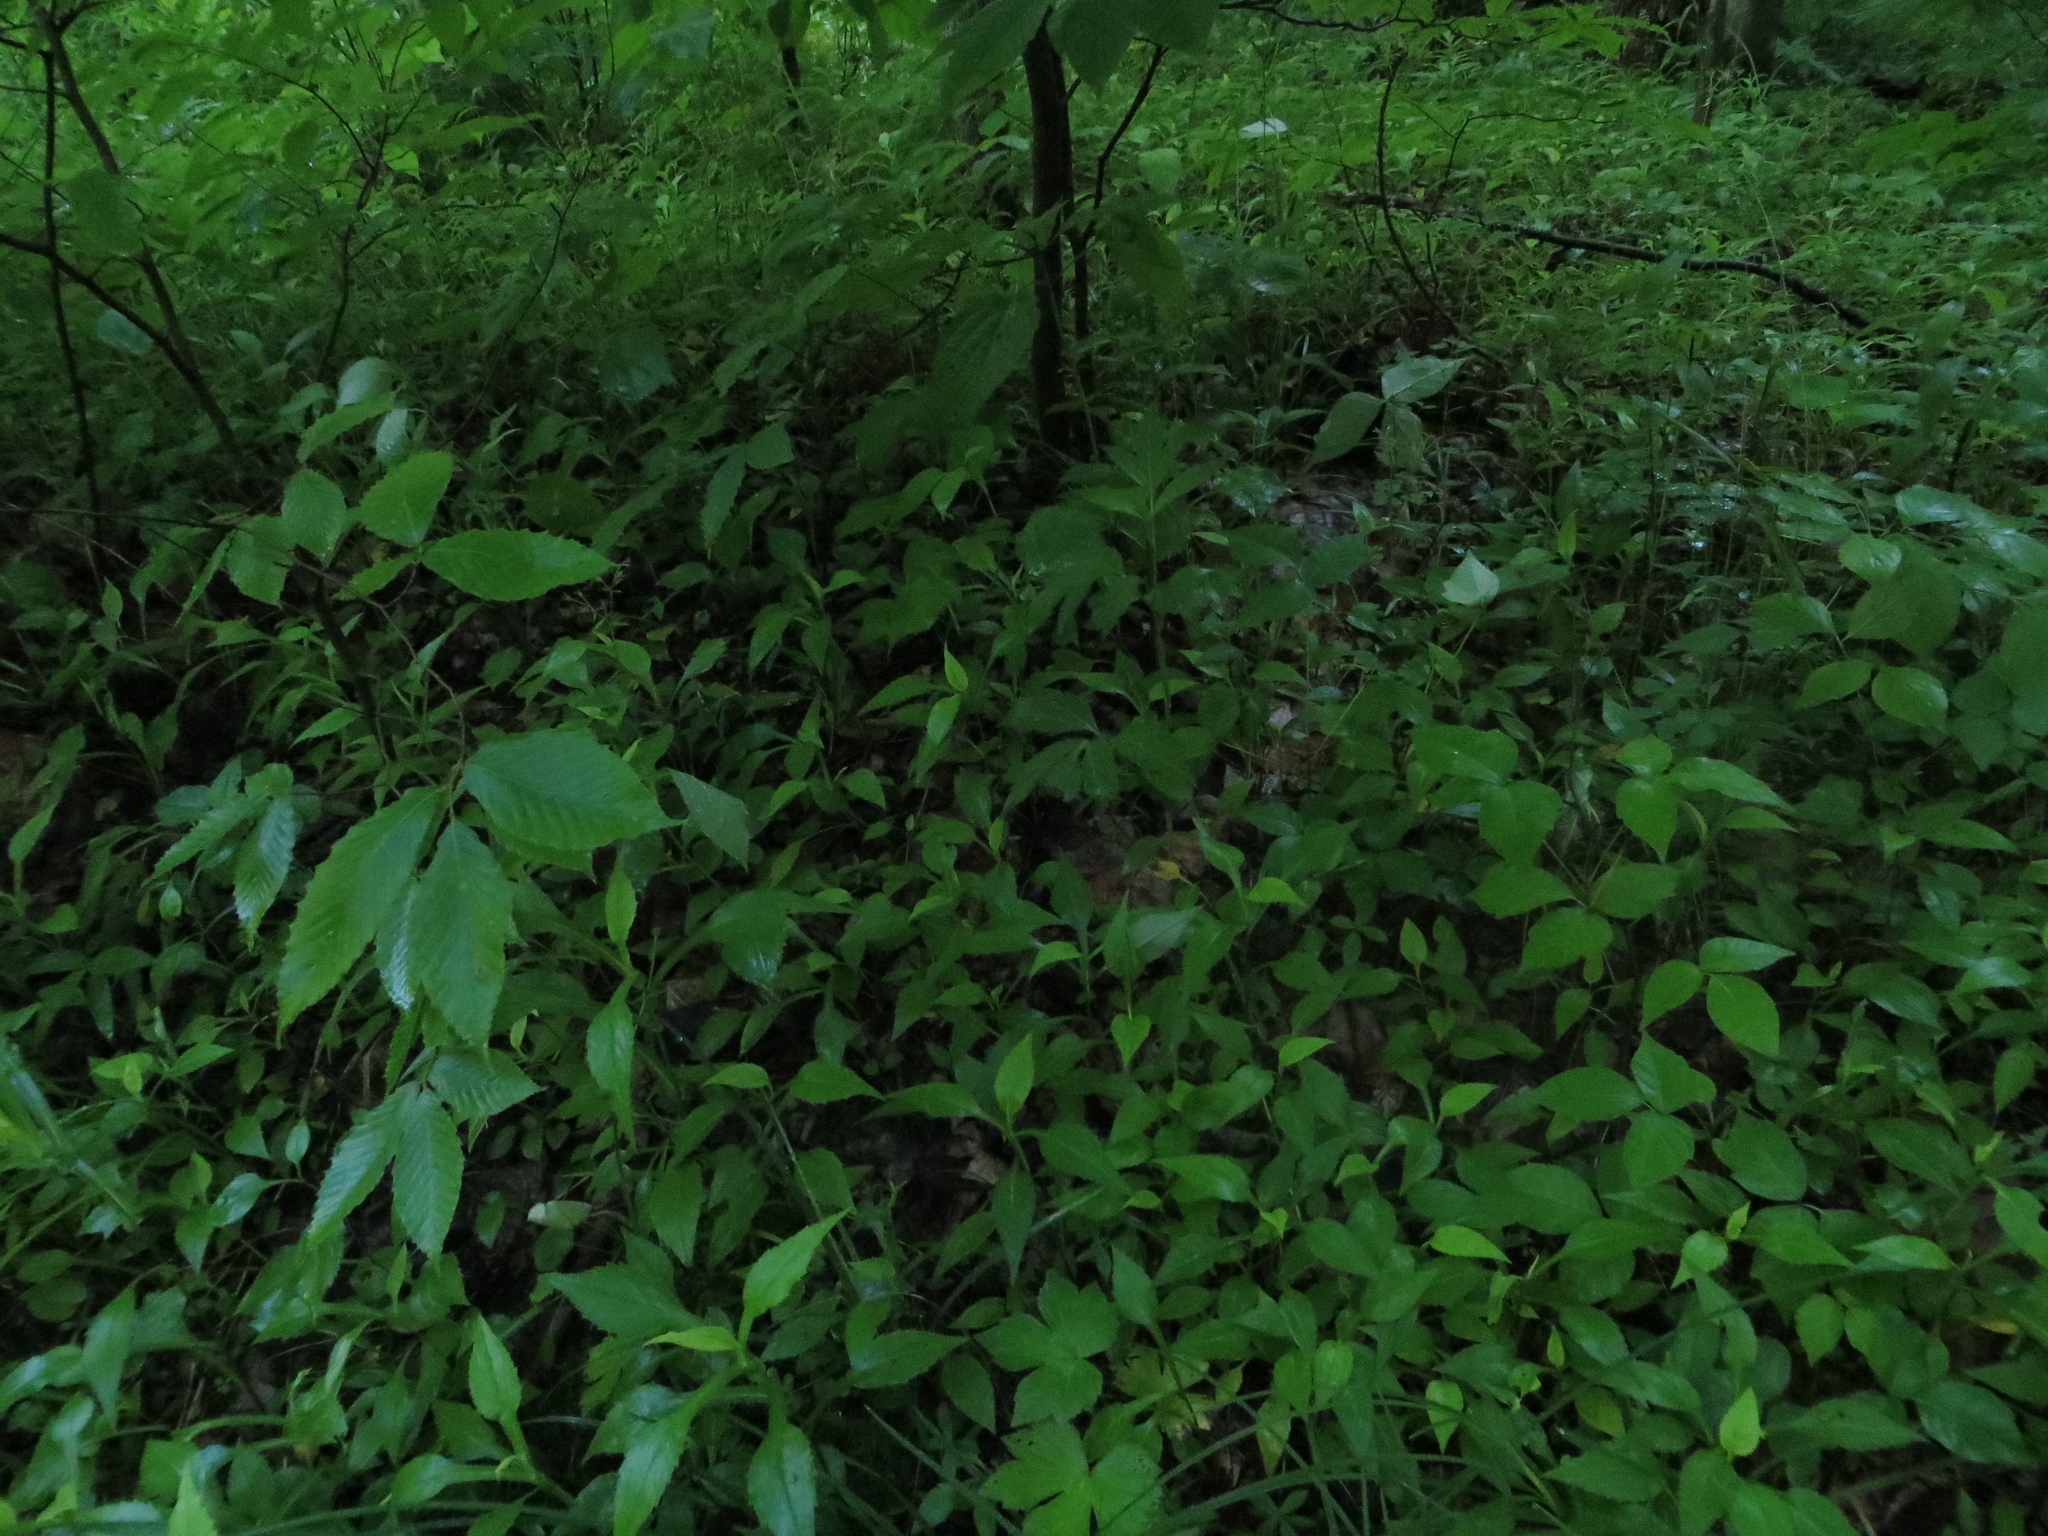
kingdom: Plantae
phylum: Tracheophyta
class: Magnoliopsida
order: Asterales
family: Asteraceae
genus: Symphyotrichum
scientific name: Symphyotrichum prenanthoides
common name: Crooked-stem aster
